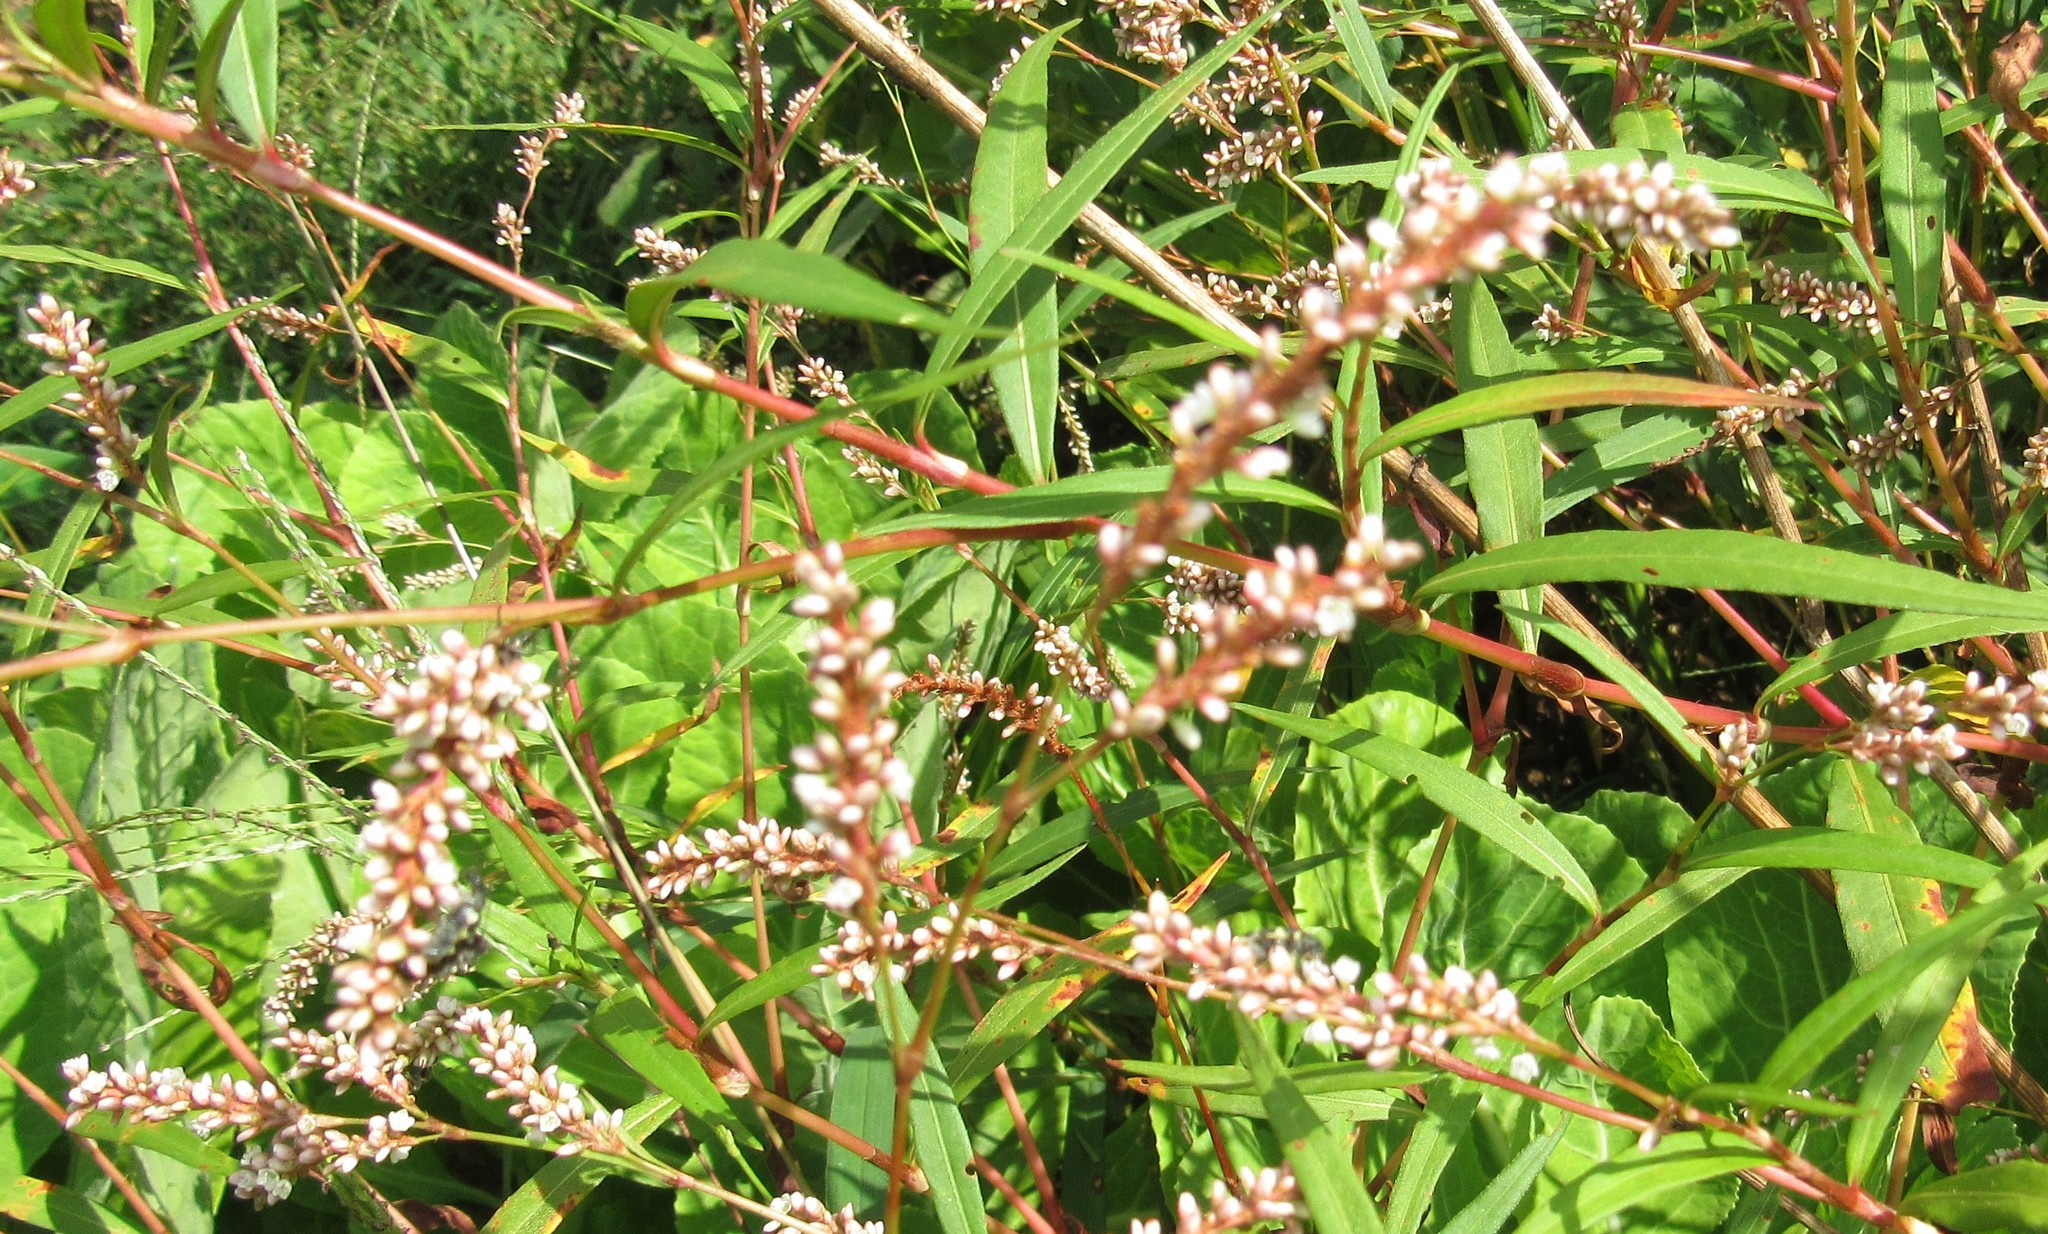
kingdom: Plantae
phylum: Tracheophyta
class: Magnoliopsida
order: Caryophyllales
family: Polygonaceae
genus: Persicaria
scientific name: Persicaria hydropiperoides
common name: Swamp smartweed
